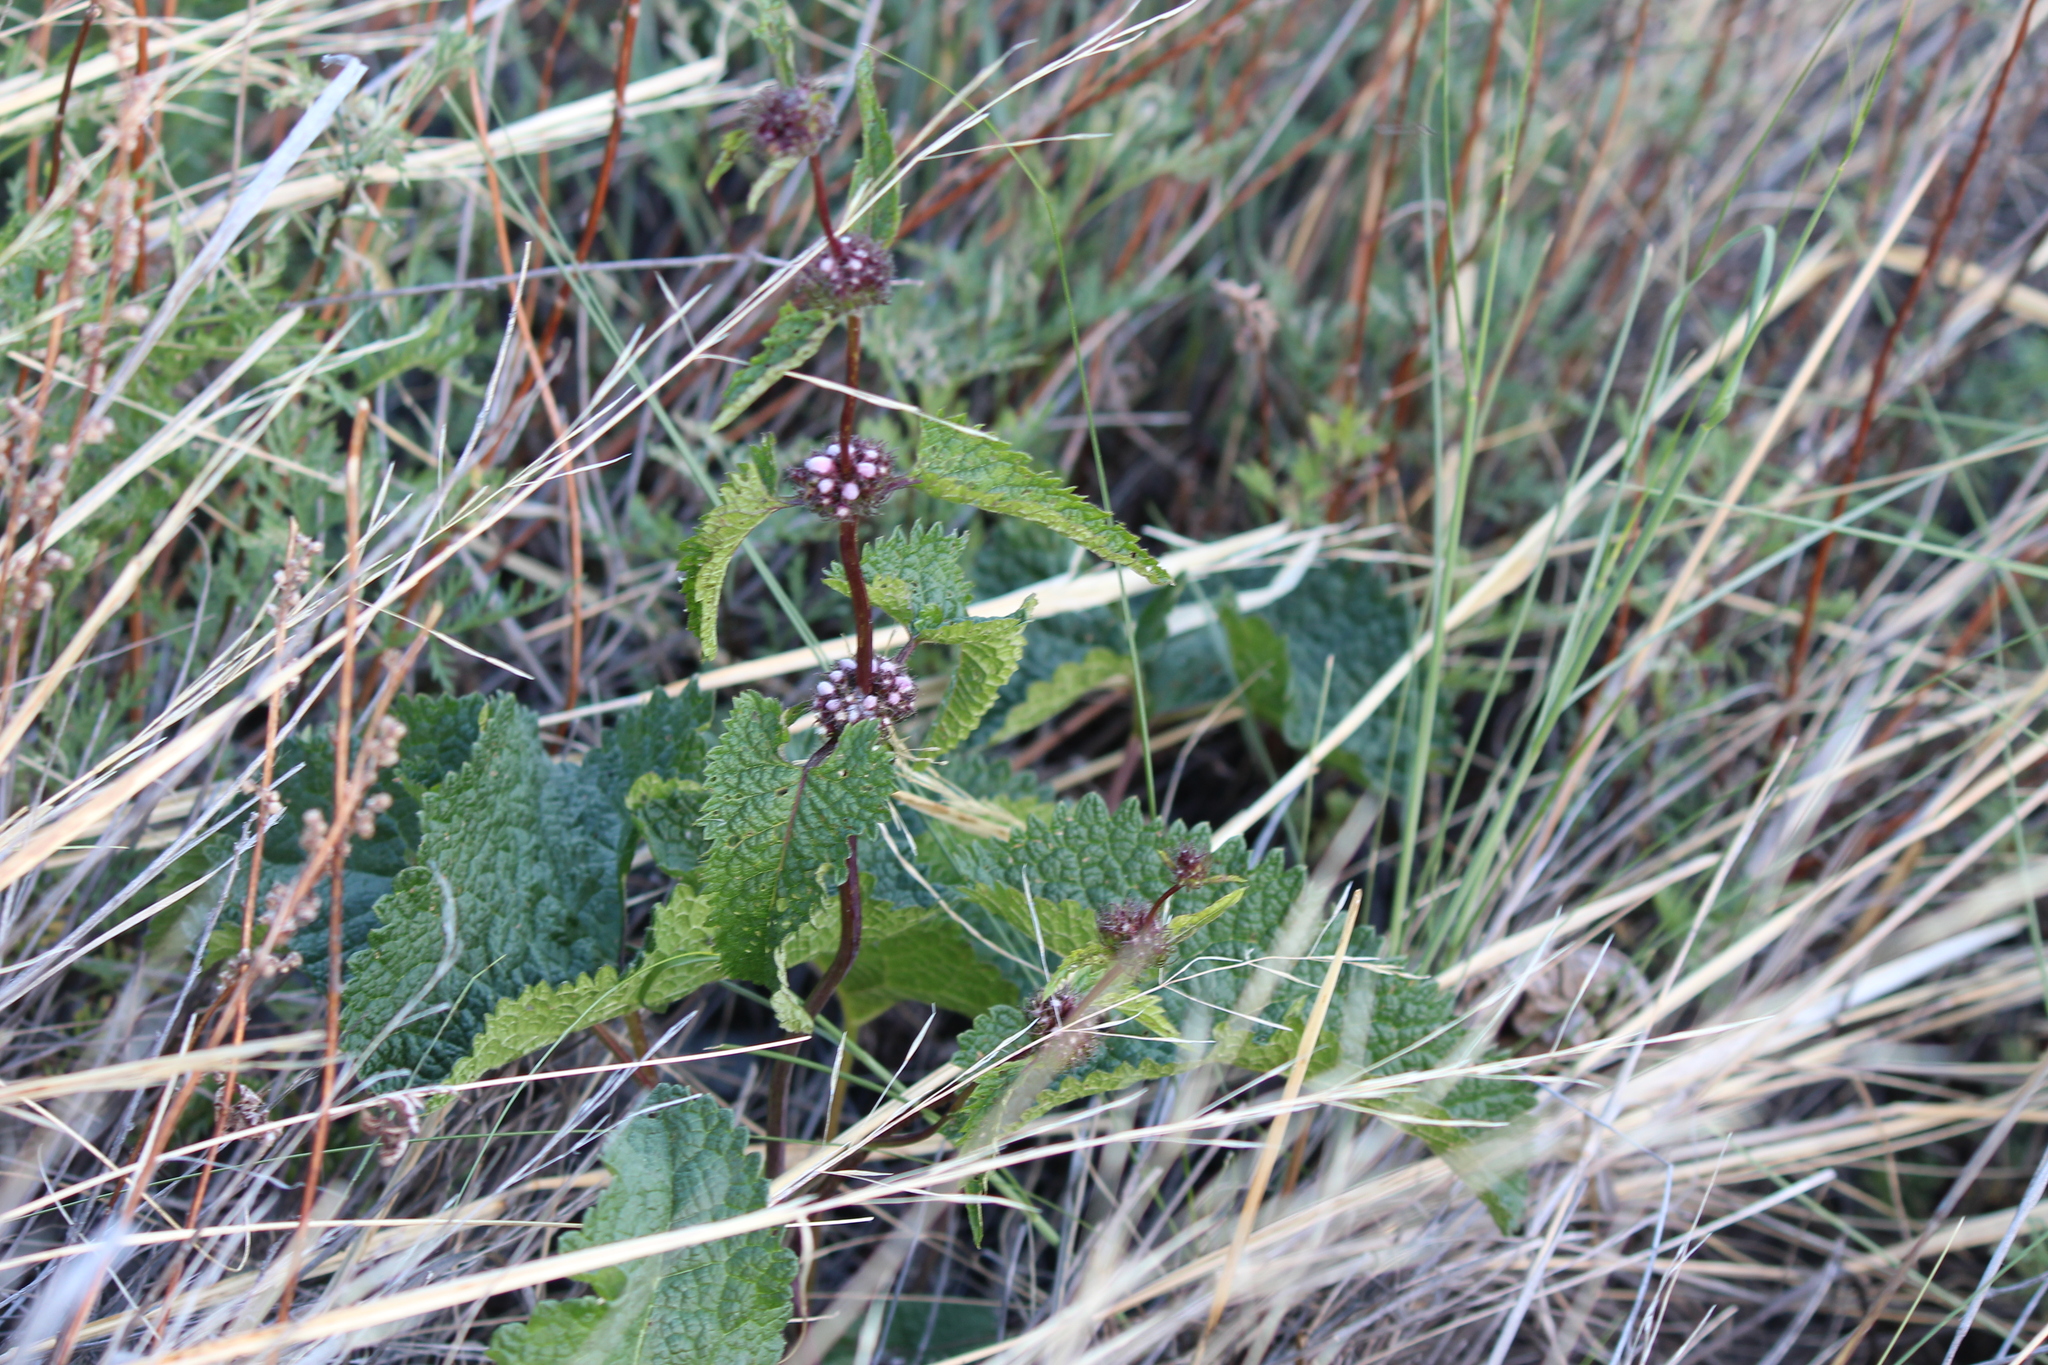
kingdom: Plantae
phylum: Tracheophyta
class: Magnoliopsida
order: Lamiales
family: Lamiaceae
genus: Phlomoides
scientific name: Phlomoides tuberosa
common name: Tuberous jerusalem sage
